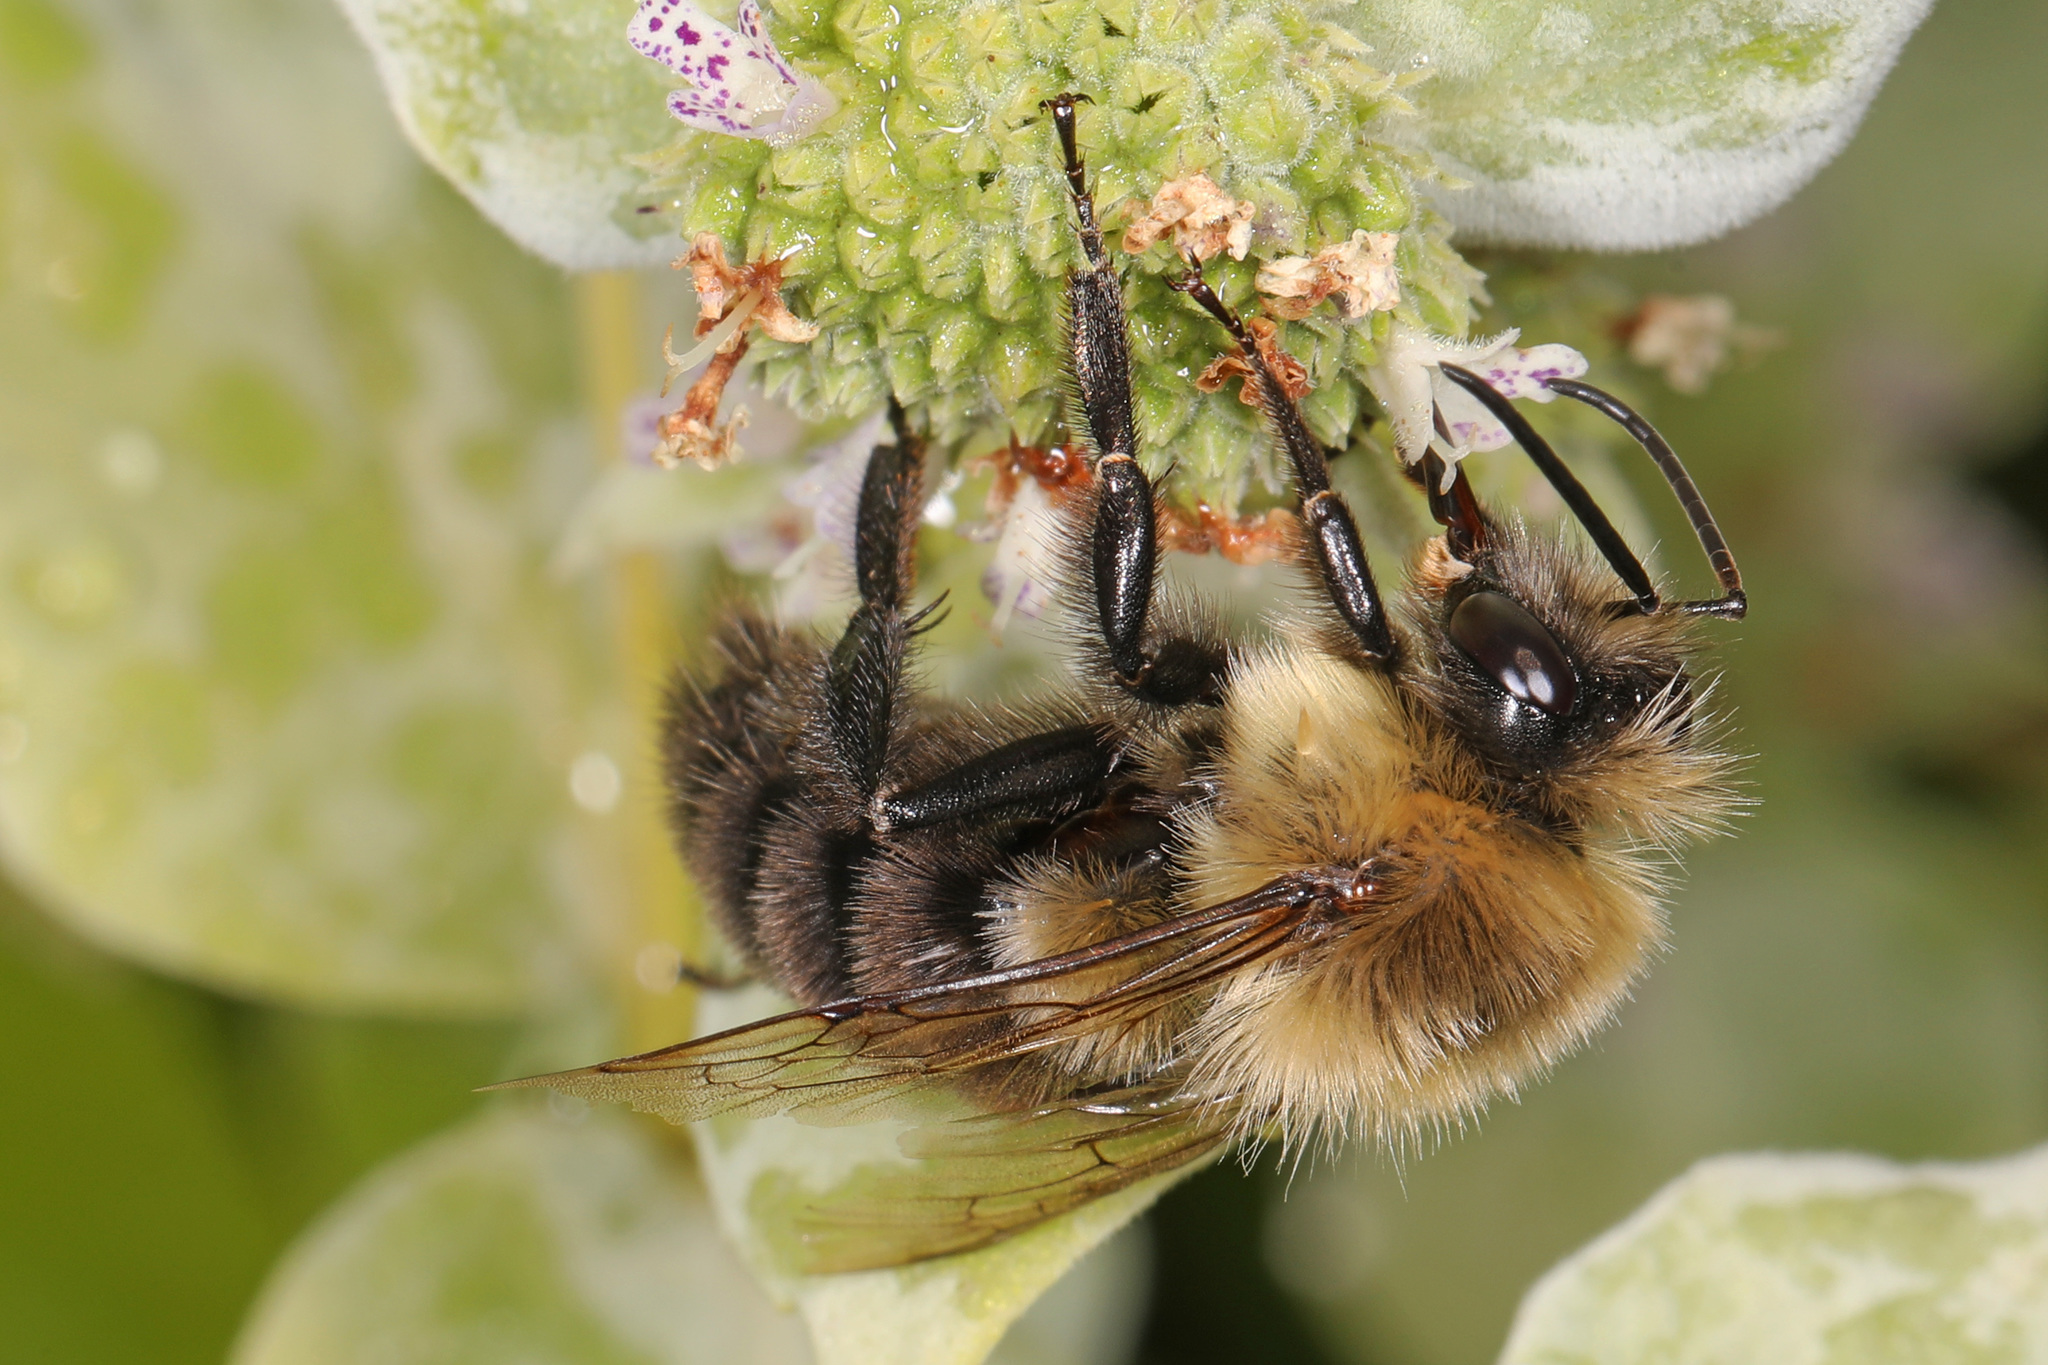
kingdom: Animalia
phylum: Arthropoda
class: Insecta
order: Hymenoptera
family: Apidae
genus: Bombus
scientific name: Bombus impatiens
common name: Common eastern bumble bee
